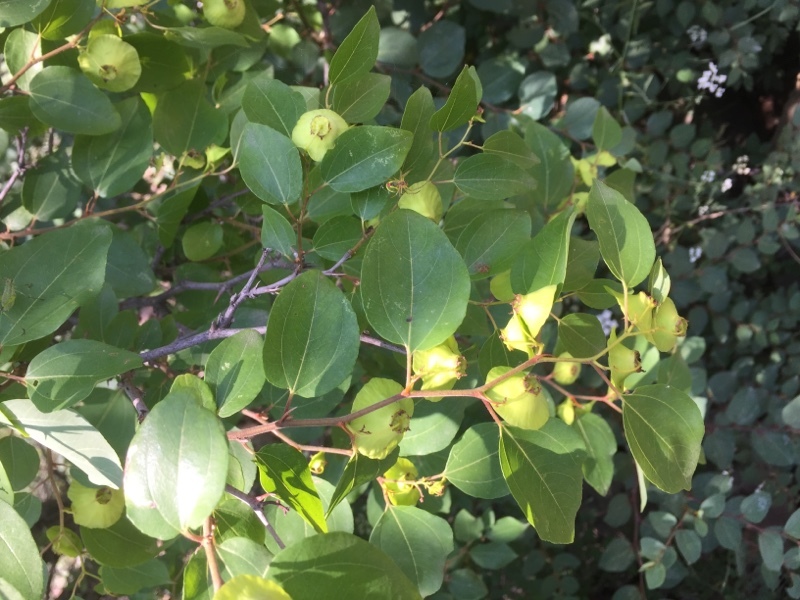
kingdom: Plantae
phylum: Tracheophyta
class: Magnoliopsida
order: Rosales
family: Rhamnaceae
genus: Paliurus
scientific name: Paliurus spina-christi
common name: Jeruselem thorn
